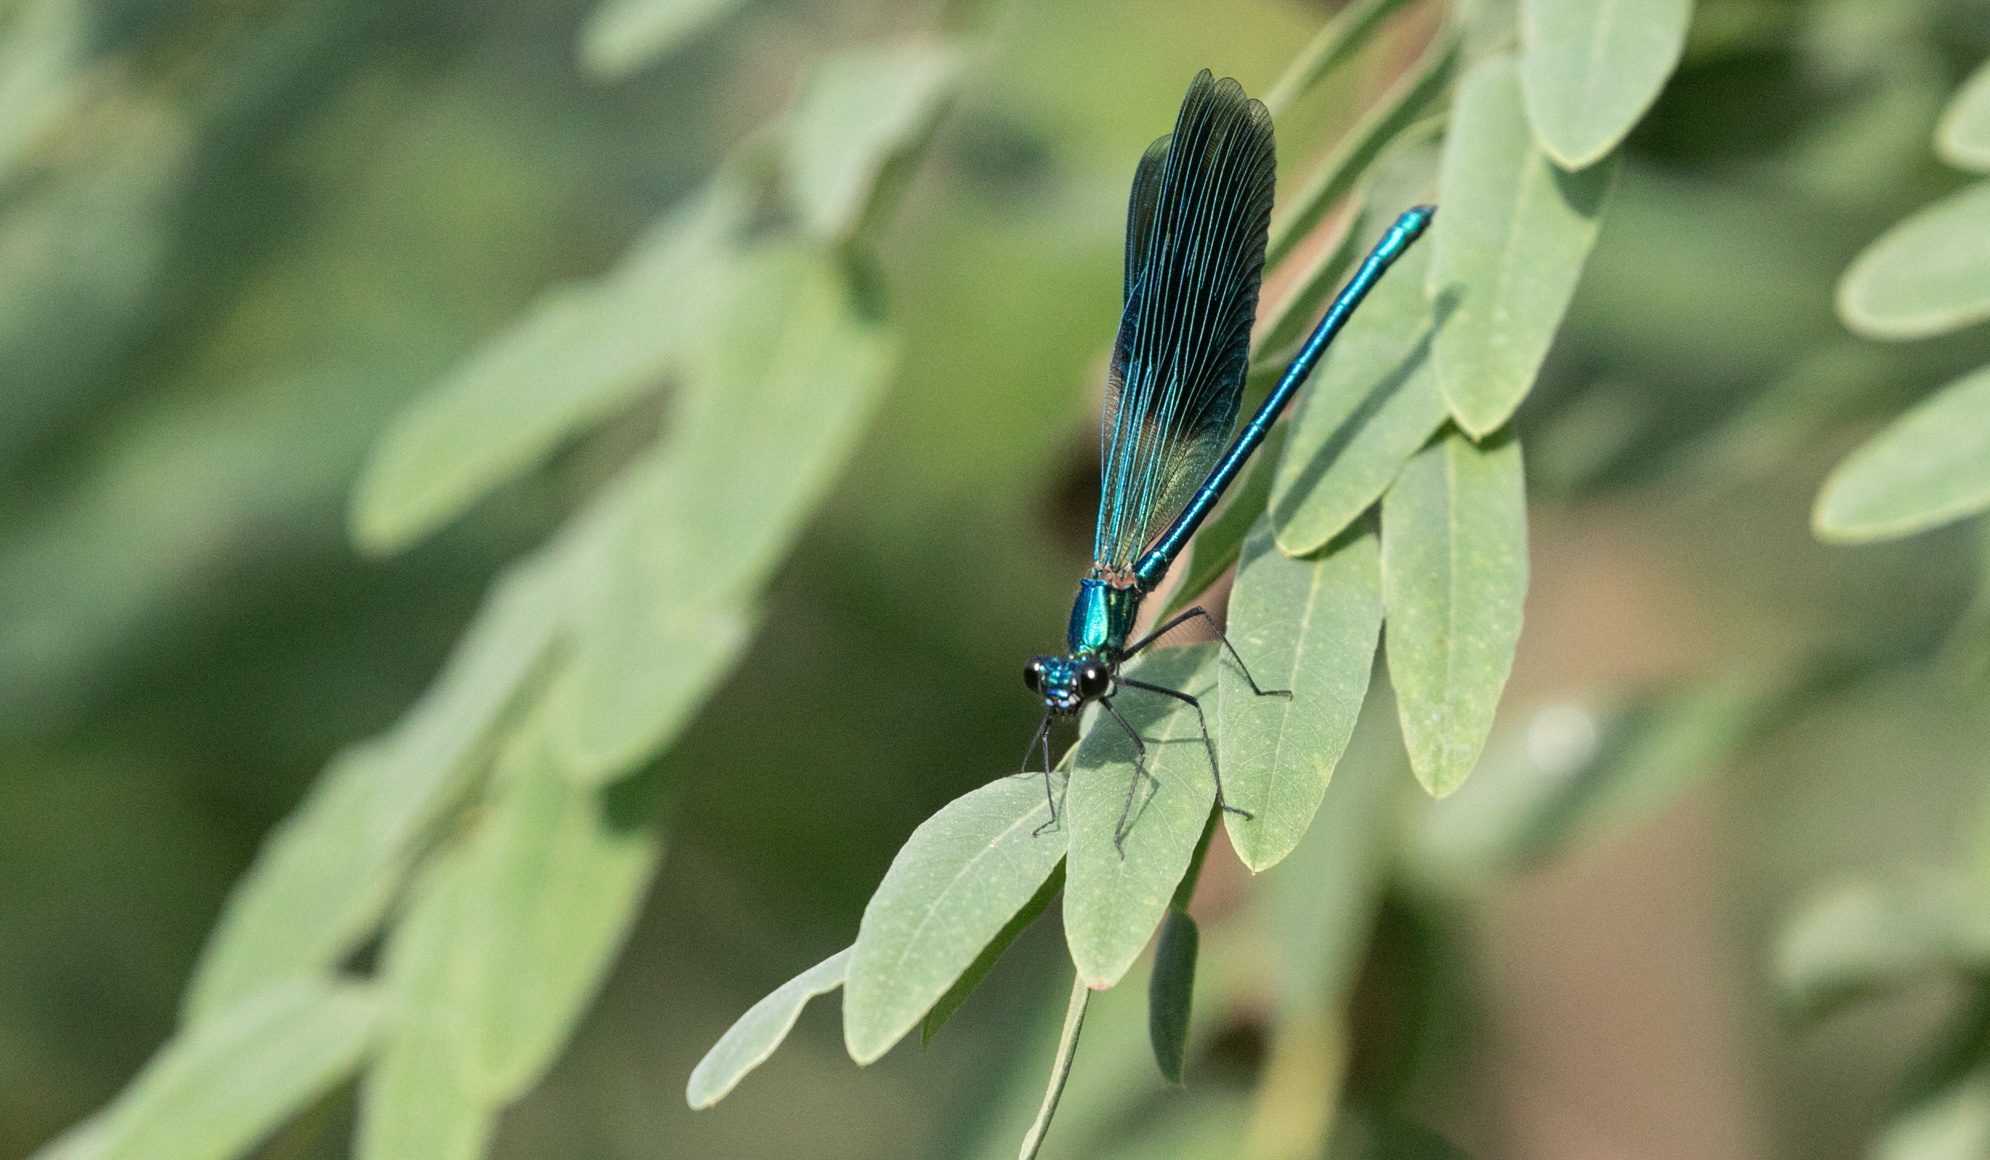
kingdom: Animalia
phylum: Arthropoda
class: Insecta
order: Odonata
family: Calopterygidae
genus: Calopteryx
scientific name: Calopteryx splendens
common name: Banded demoiselle
